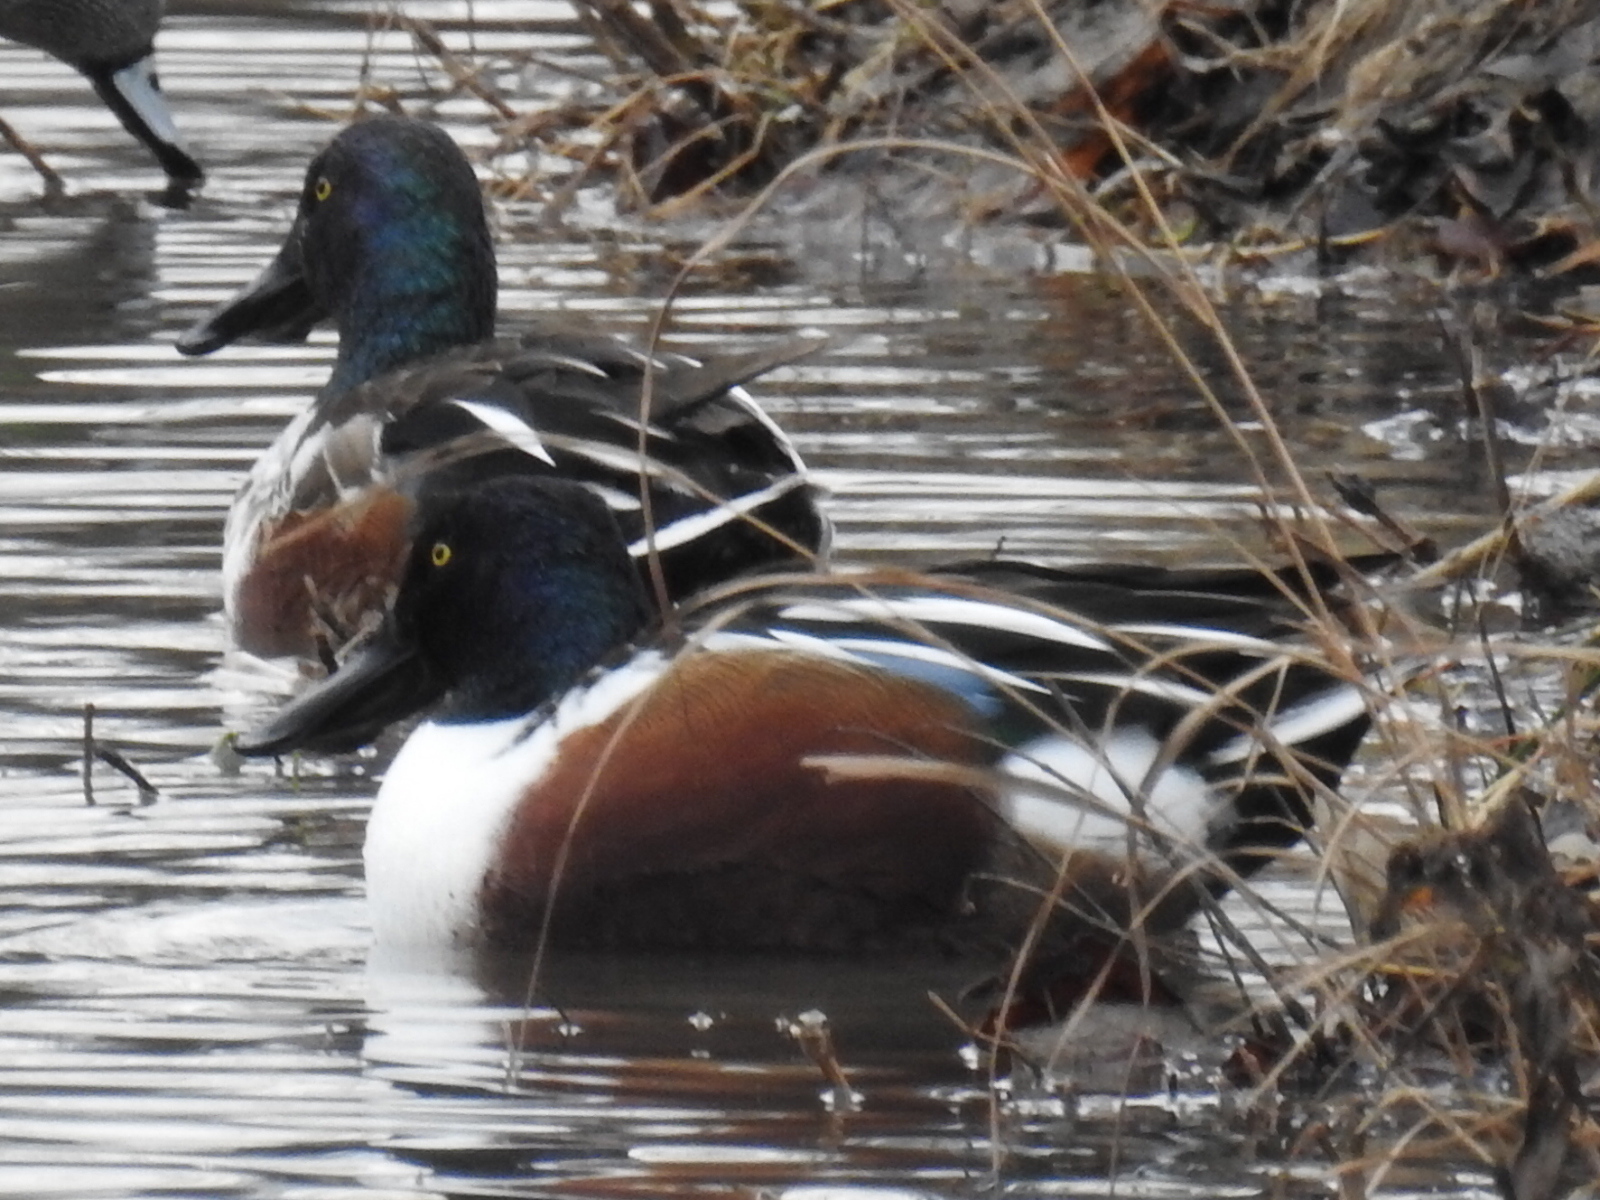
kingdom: Animalia
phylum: Chordata
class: Aves
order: Anseriformes
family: Anatidae
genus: Spatula
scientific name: Spatula clypeata
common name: Northern shoveler
